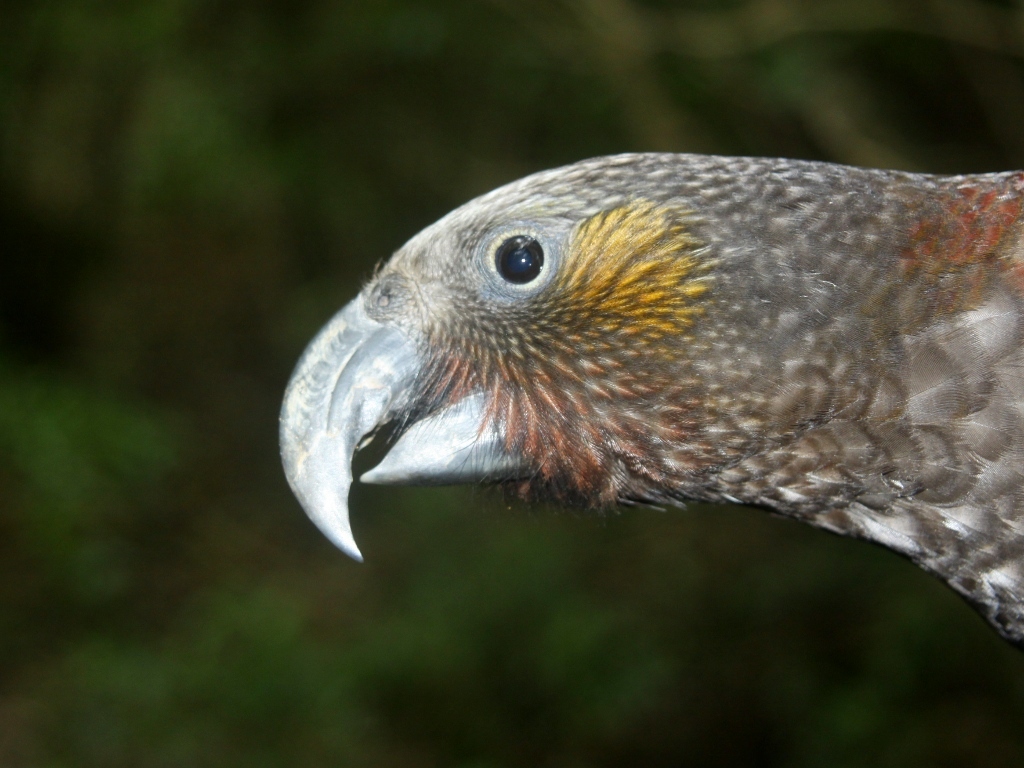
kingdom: Animalia
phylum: Chordata
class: Aves
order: Psittaciformes
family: Psittacidae
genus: Nestor
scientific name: Nestor meridionalis
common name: New zealand kaka
